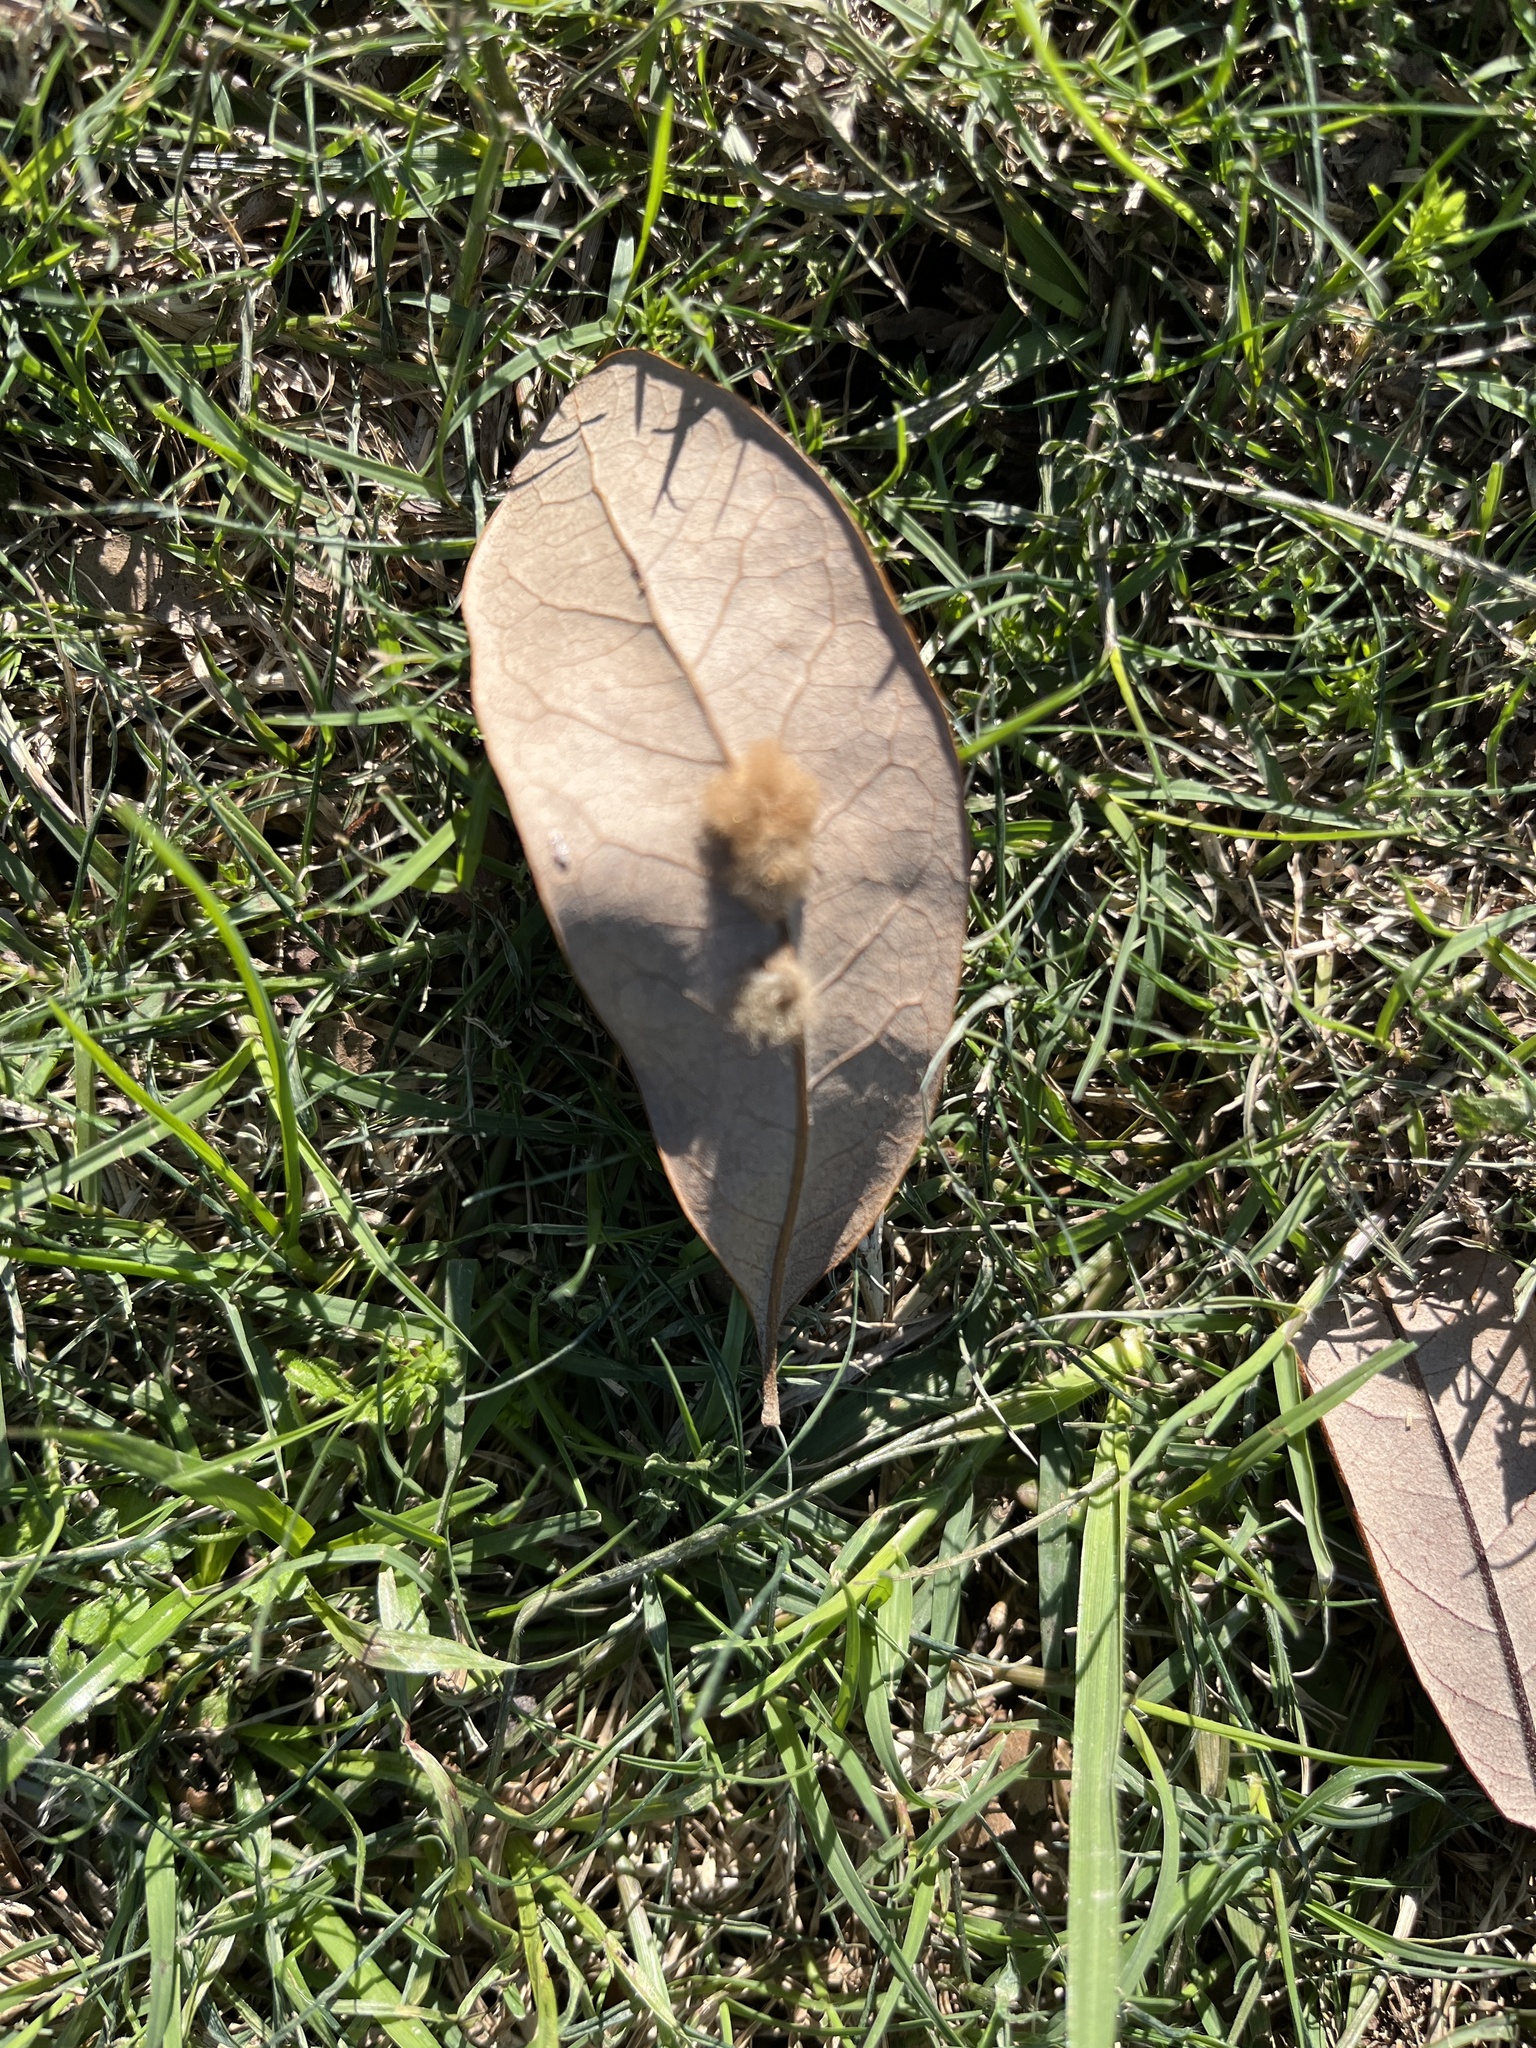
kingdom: Animalia
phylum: Arthropoda
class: Insecta
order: Hymenoptera
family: Cynipidae
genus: Andricus
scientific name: Andricus Druon quercuslanigerum
